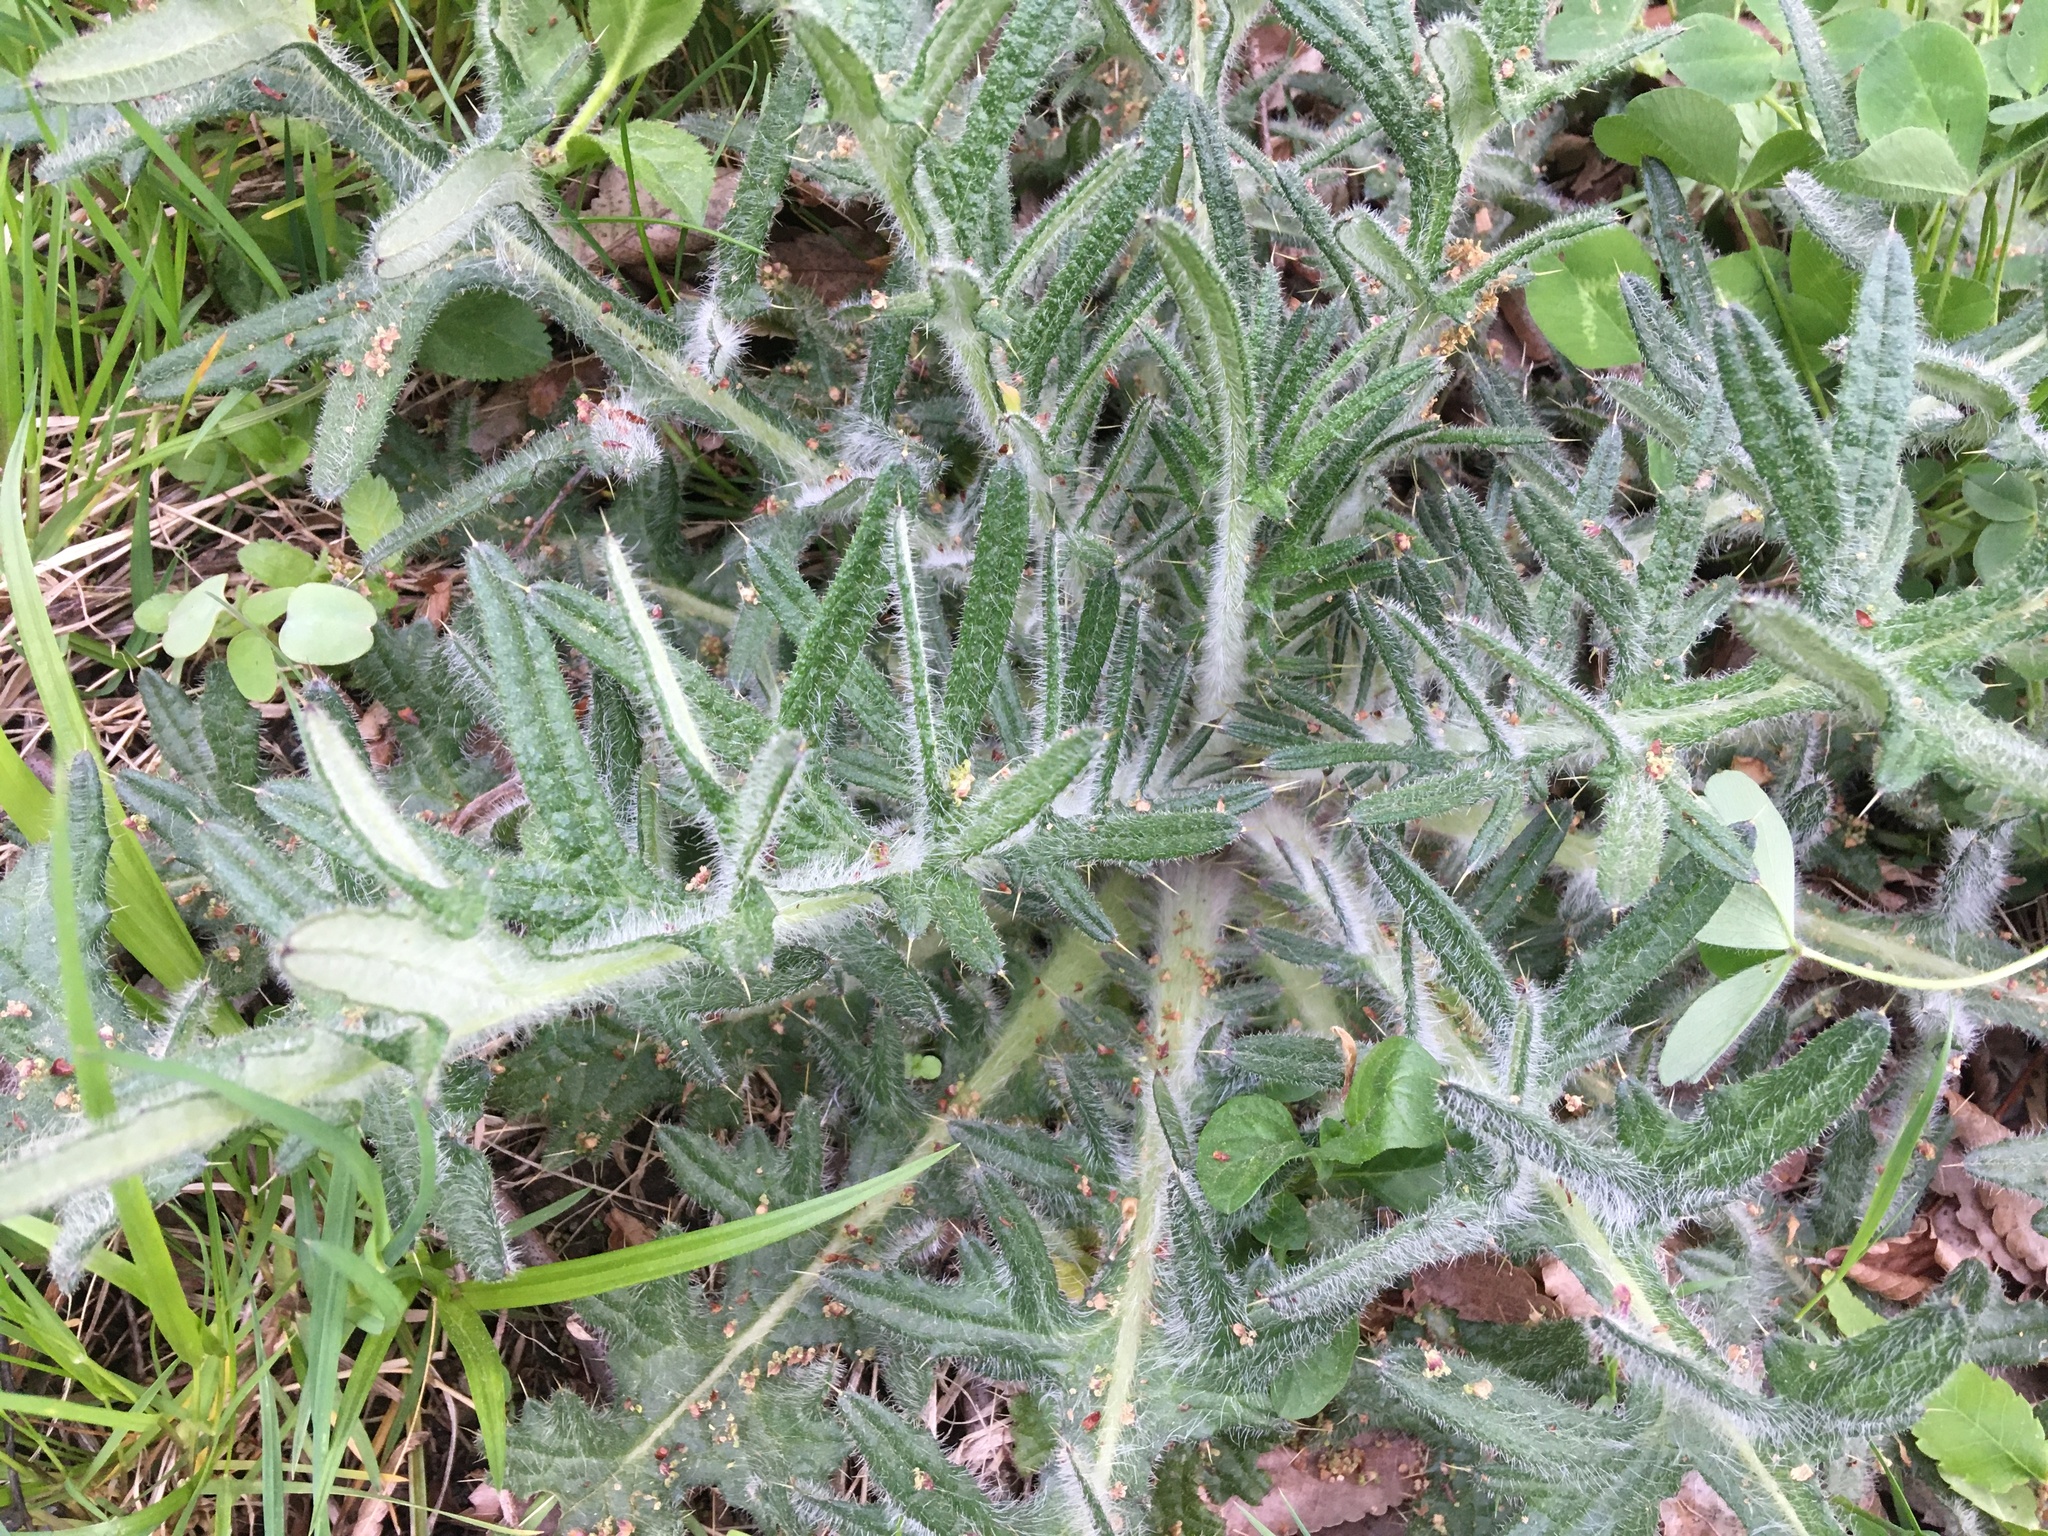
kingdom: Plantae
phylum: Tracheophyta
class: Magnoliopsida
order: Asterales
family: Asteraceae
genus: Cirsium
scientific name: Cirsium vulgare
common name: Bull thistle
